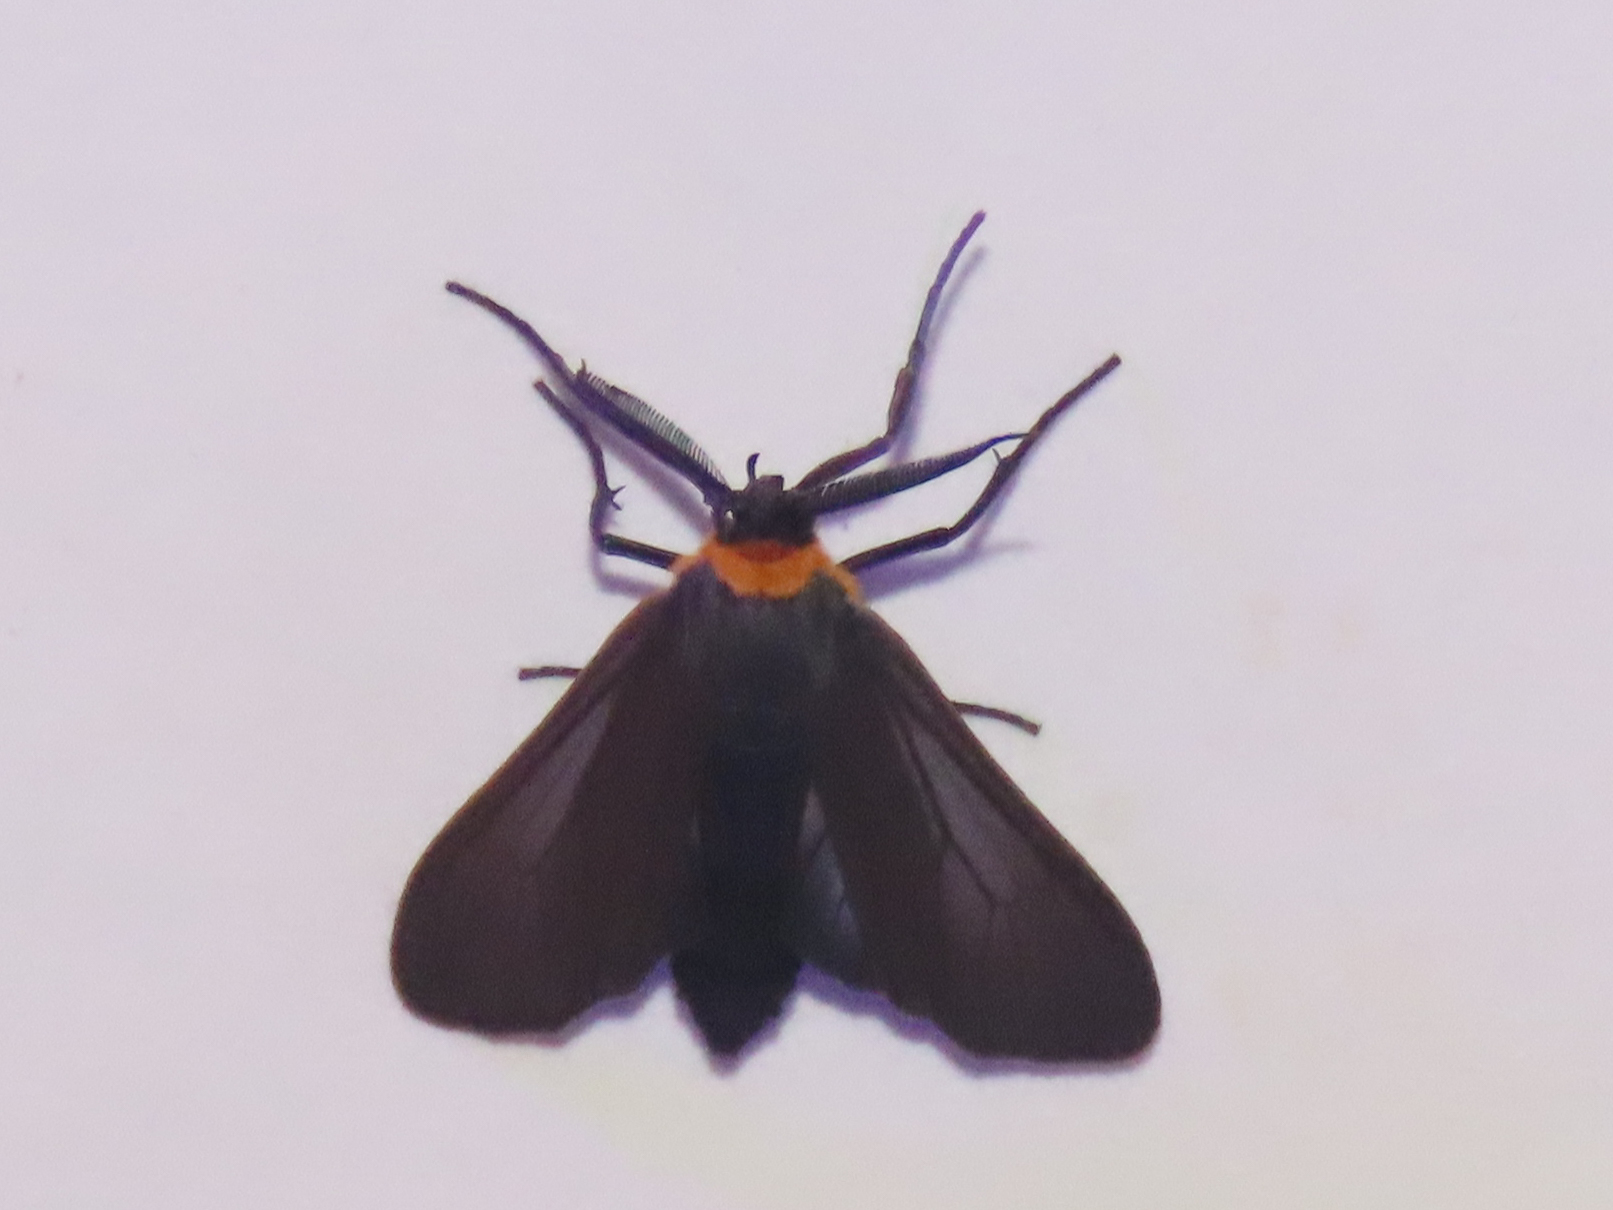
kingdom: Animalia
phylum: Arthropoda
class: Insecta
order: Lepidoptera
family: Erebidae
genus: Cisseps
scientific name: Cisseps fulvicollis
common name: Yellow-collared scape moth
